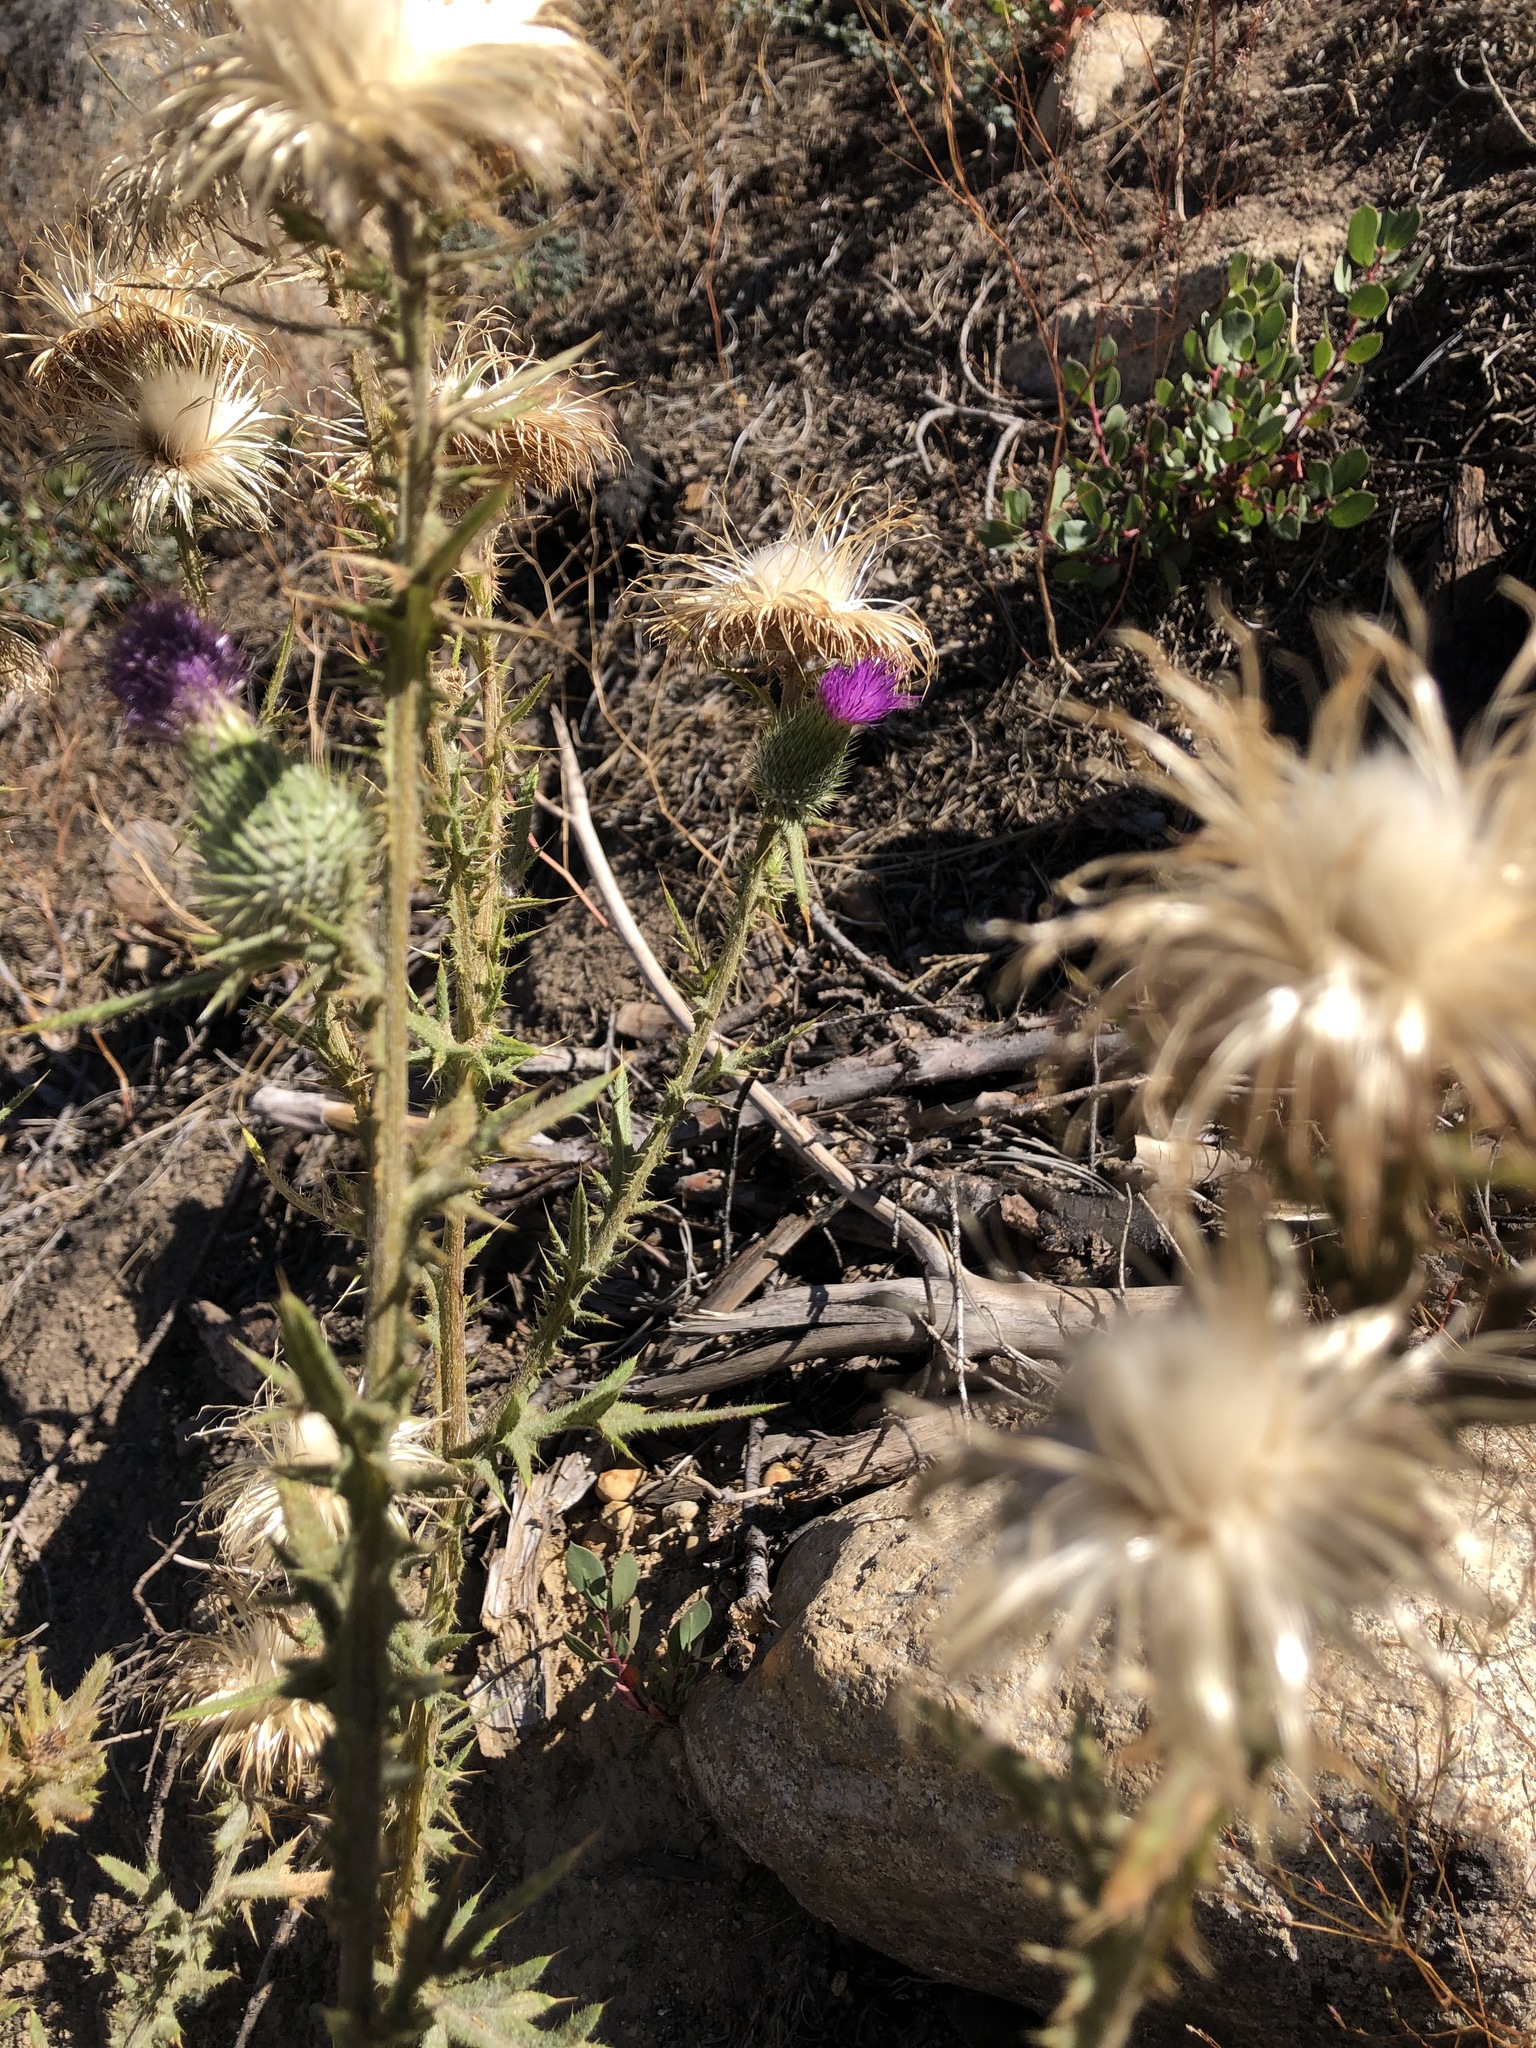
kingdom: Plantae
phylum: Tracheophyta
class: Magnoliopsida
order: Asterales
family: Asteraceae
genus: Cirsium
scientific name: Cirsium vulgare
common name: Bull thistle
